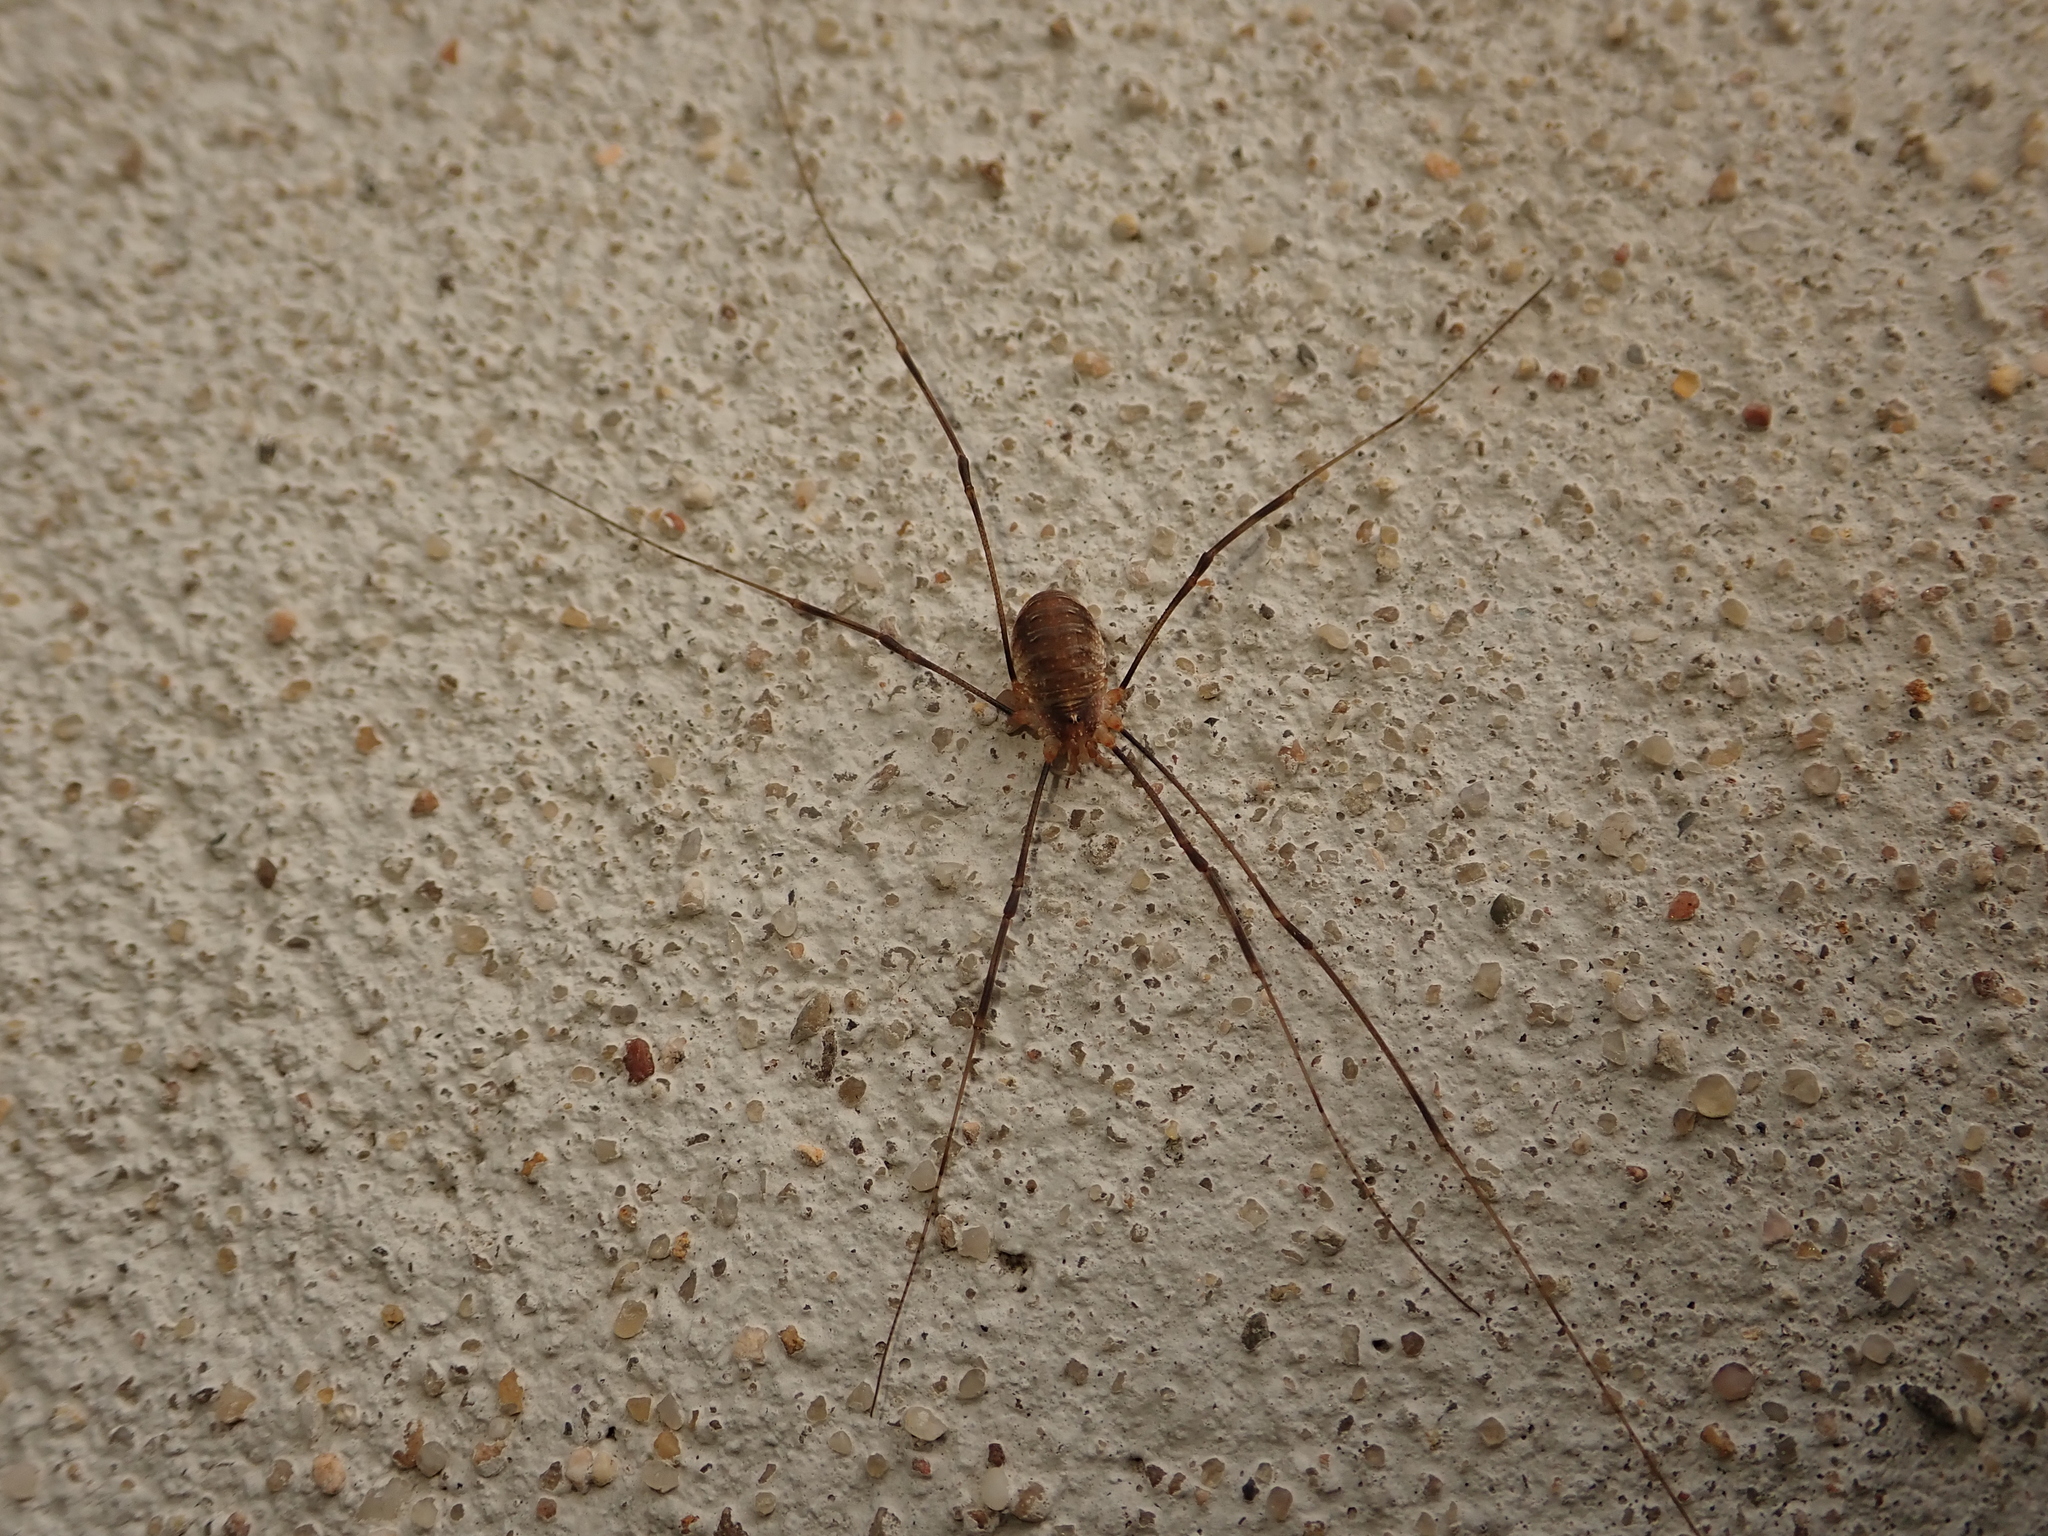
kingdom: Animalia
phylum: Arthropoda
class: Arachnida
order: Opiliones
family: Phalangiidae
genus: Opilio
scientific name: Opilio canestrinii
